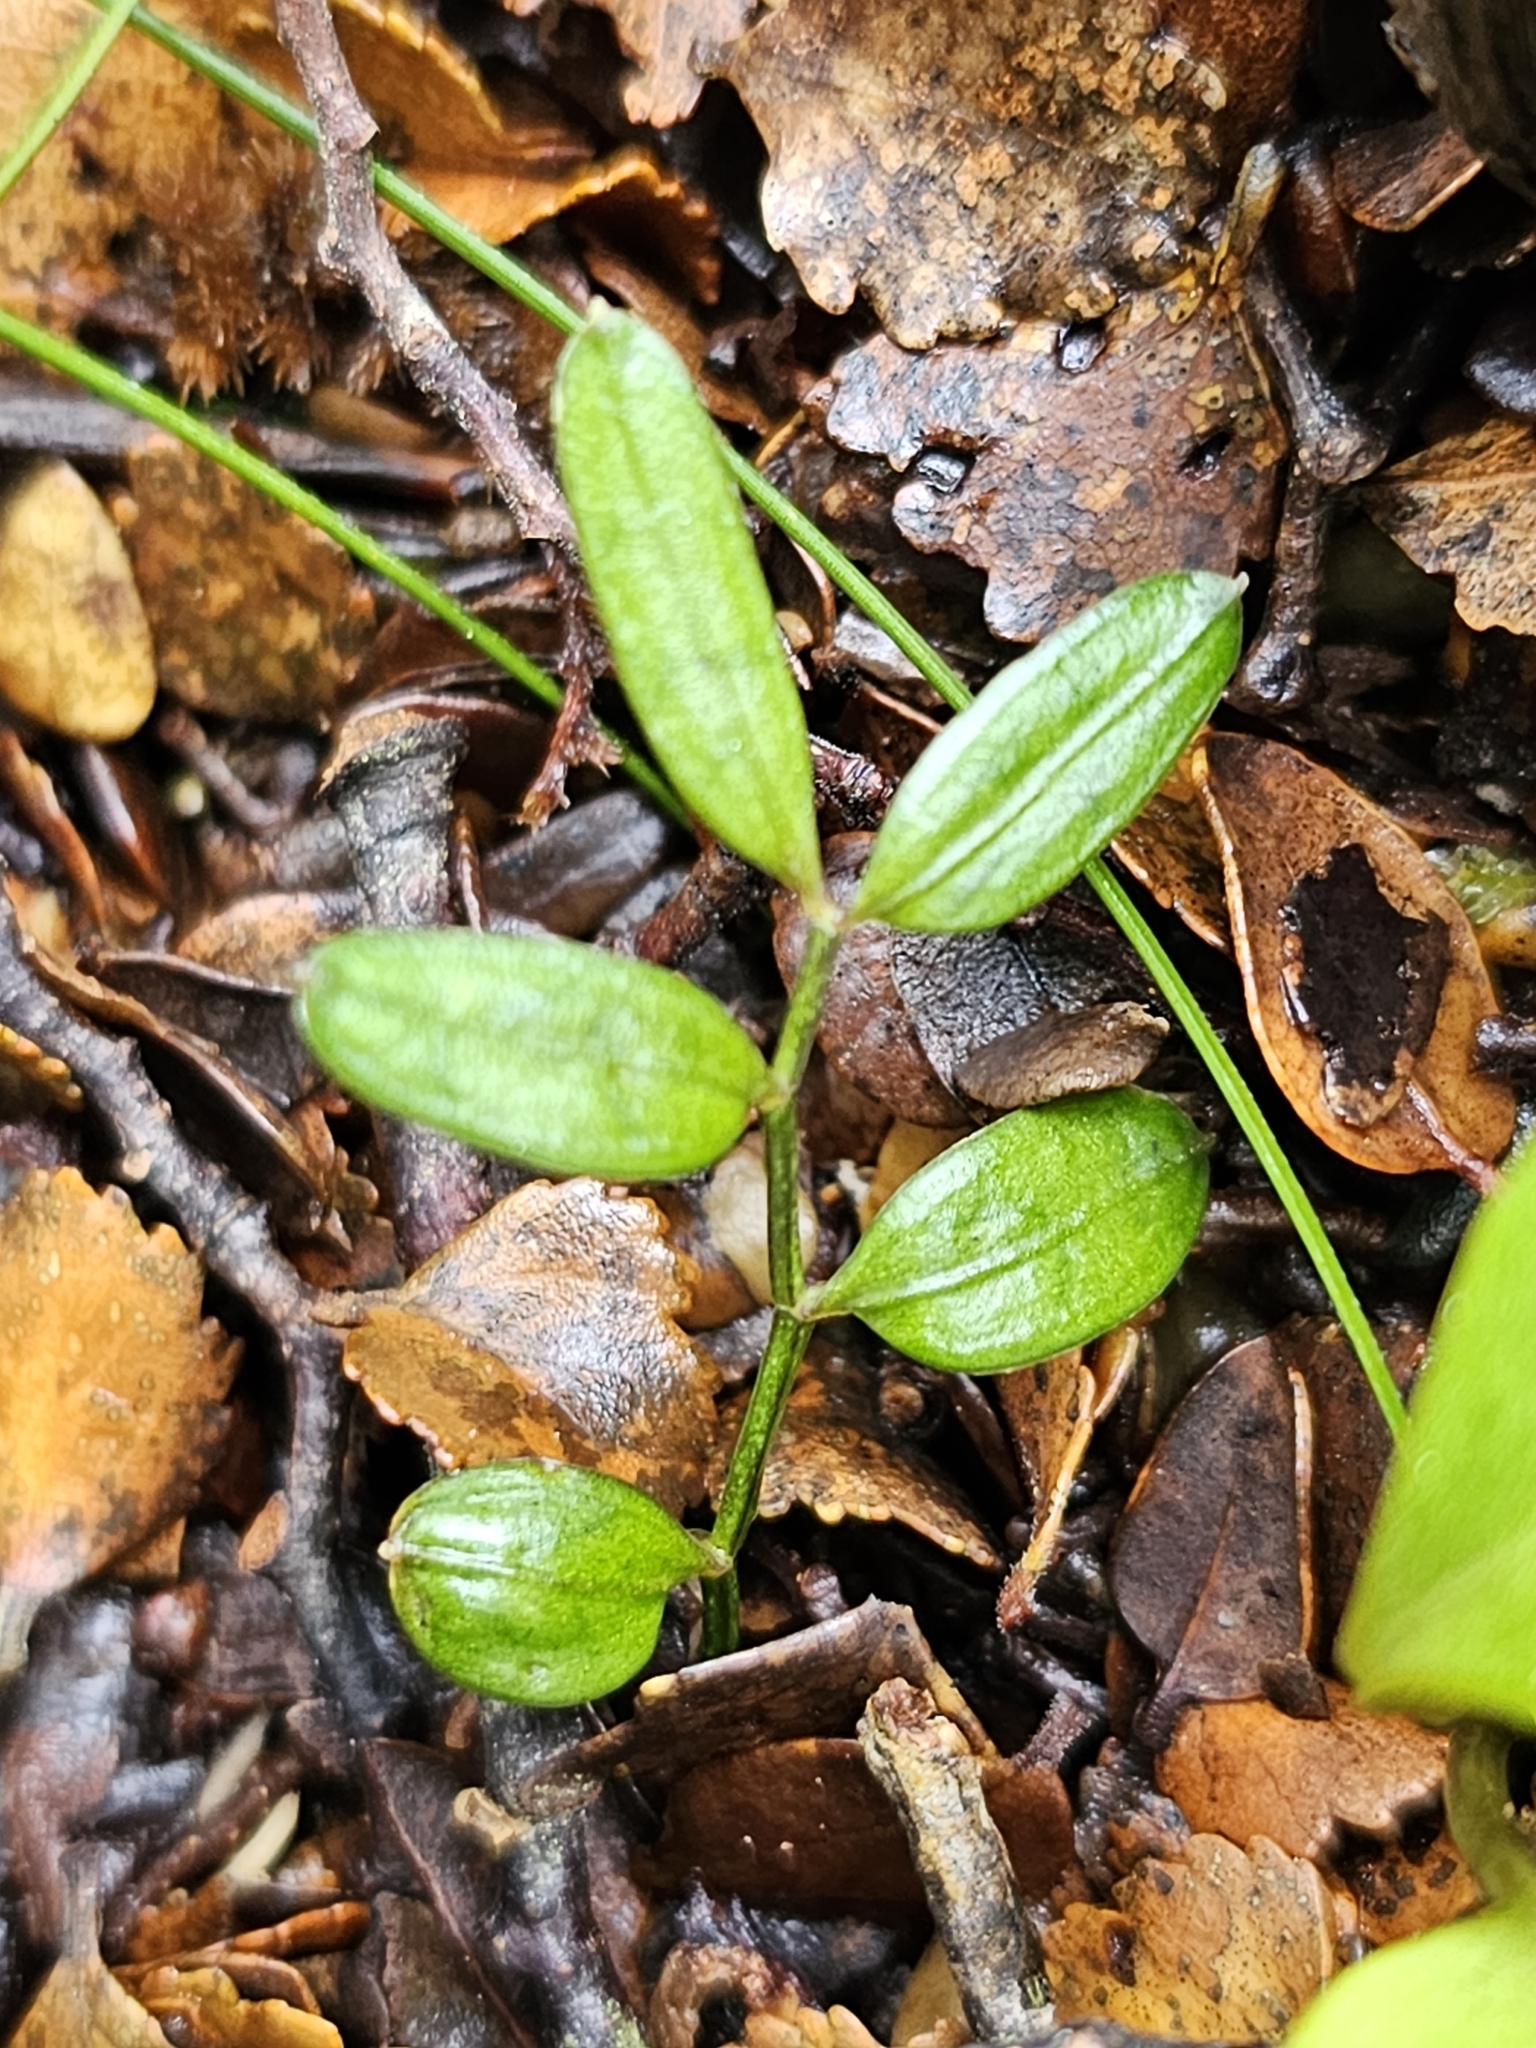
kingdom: Plantae
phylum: Tracheophyta
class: Liliopsida
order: Liliales
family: Alstroemeriaceae
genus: Luzuriaga
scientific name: Luzuriaga parviflora
